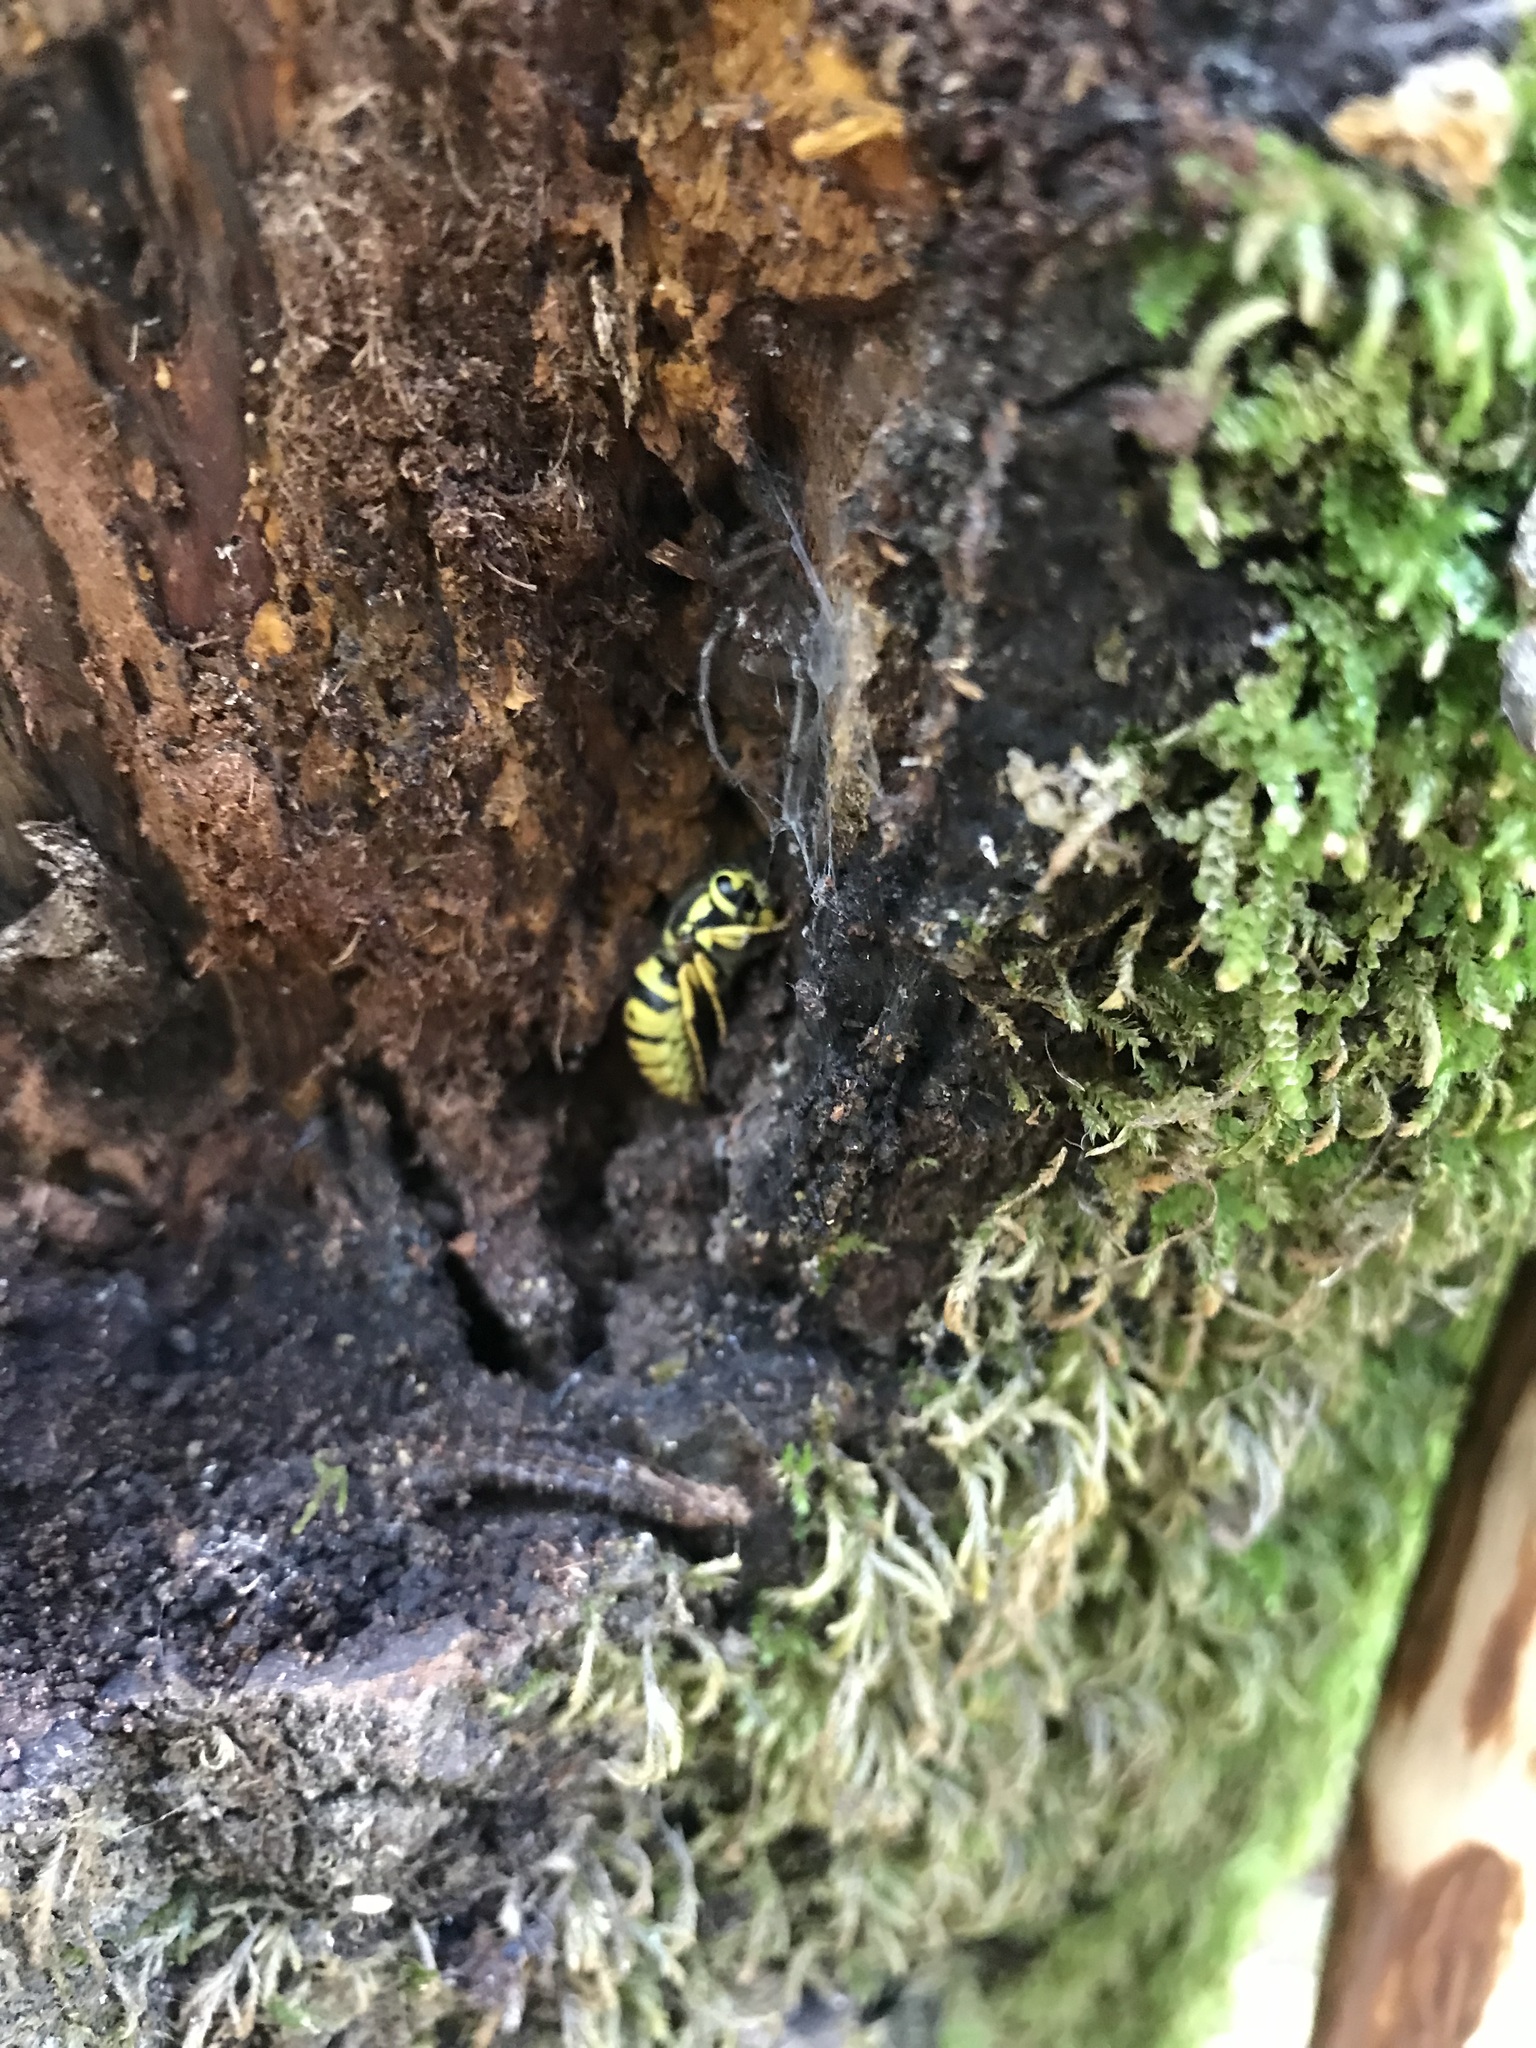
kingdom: Animalia
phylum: Arthropoda
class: Insecta
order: Hymenoptera
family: Vespidae
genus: Vespula
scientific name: Vespula pensylvanica
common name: Western yellowjacket
